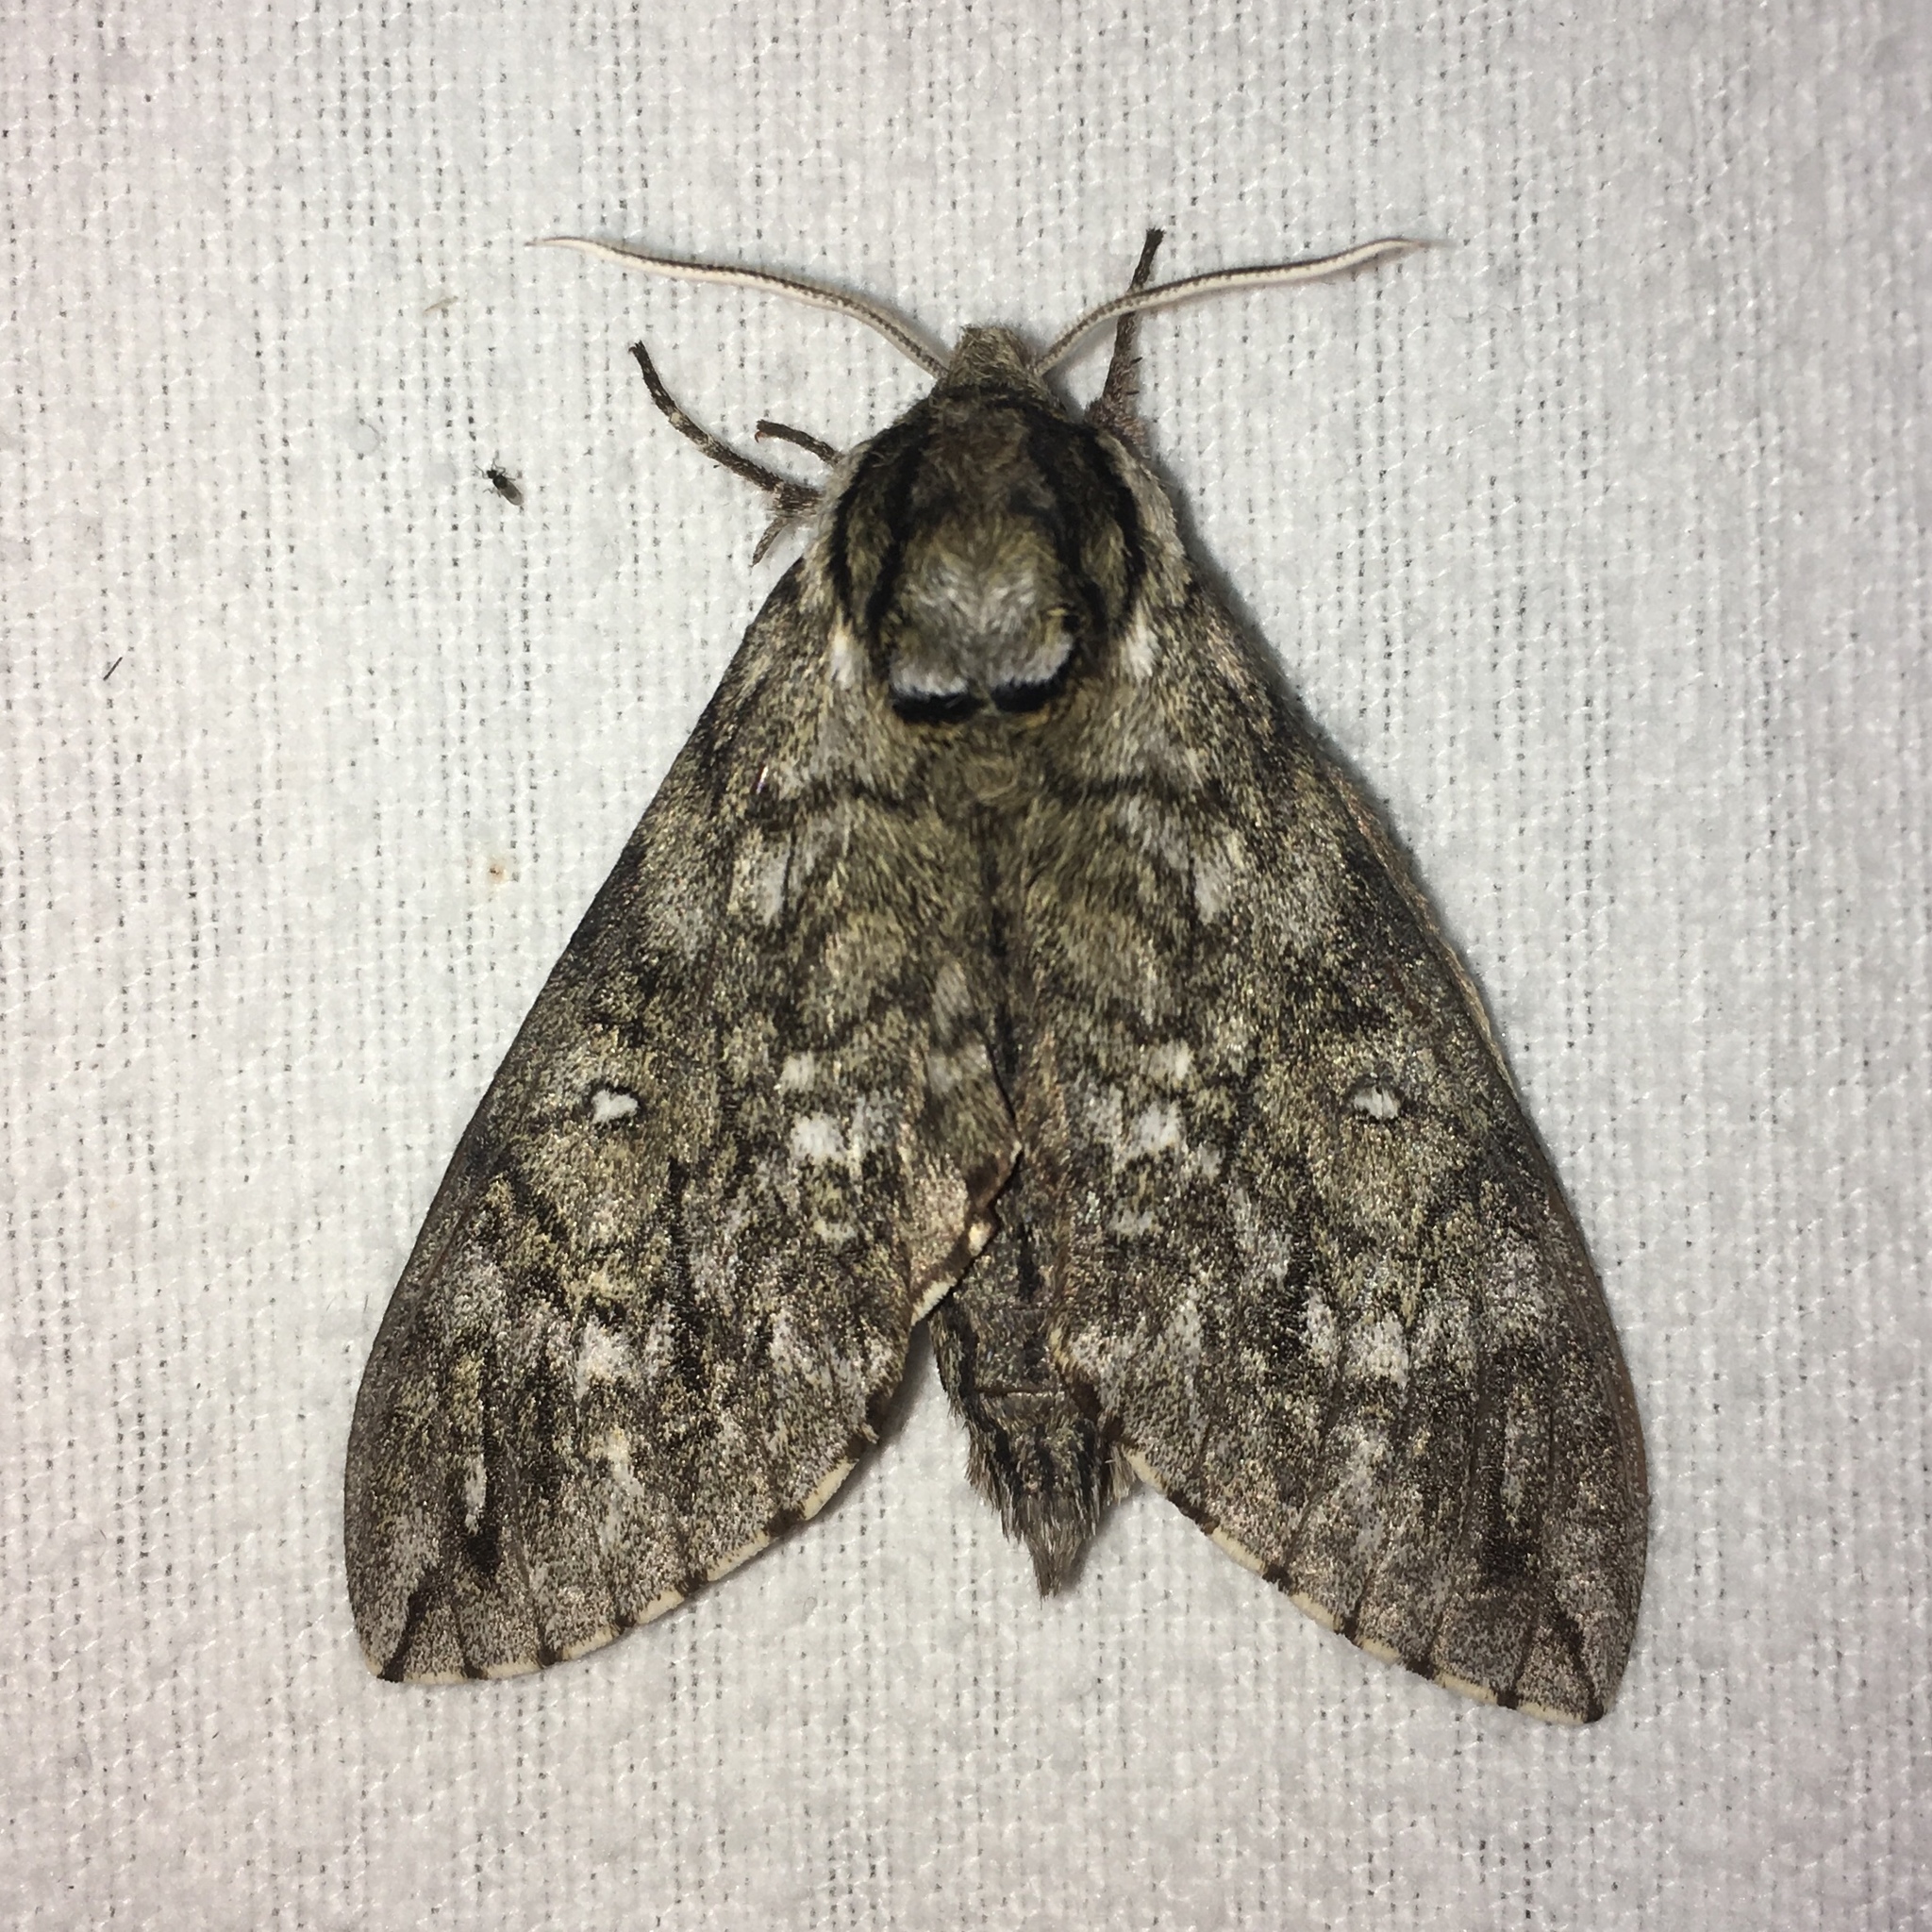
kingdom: Animalia
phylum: Arthropoda
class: Insecta
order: Lepidoptera
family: Sphingidae
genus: Ceratomia
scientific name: Ceratomia undulosa
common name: Waved sphinx
